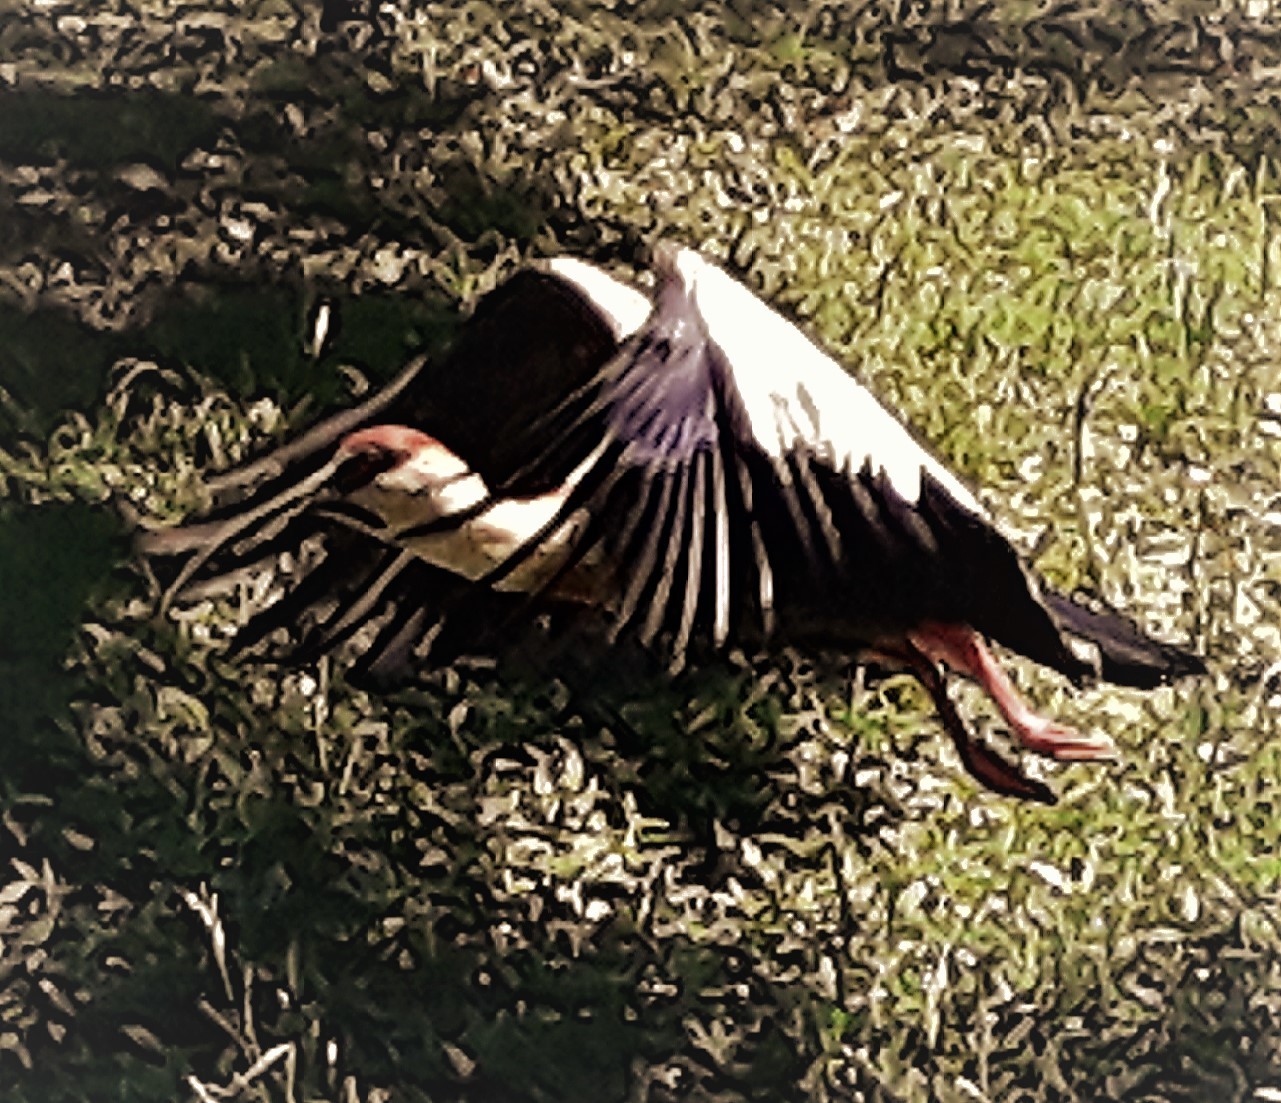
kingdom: Animalia
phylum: Chordata
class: Aves
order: Pelecaniformes
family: Threskiornithidae
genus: Theristicus
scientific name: Theristicus caudatus
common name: Buff-necked ibis
